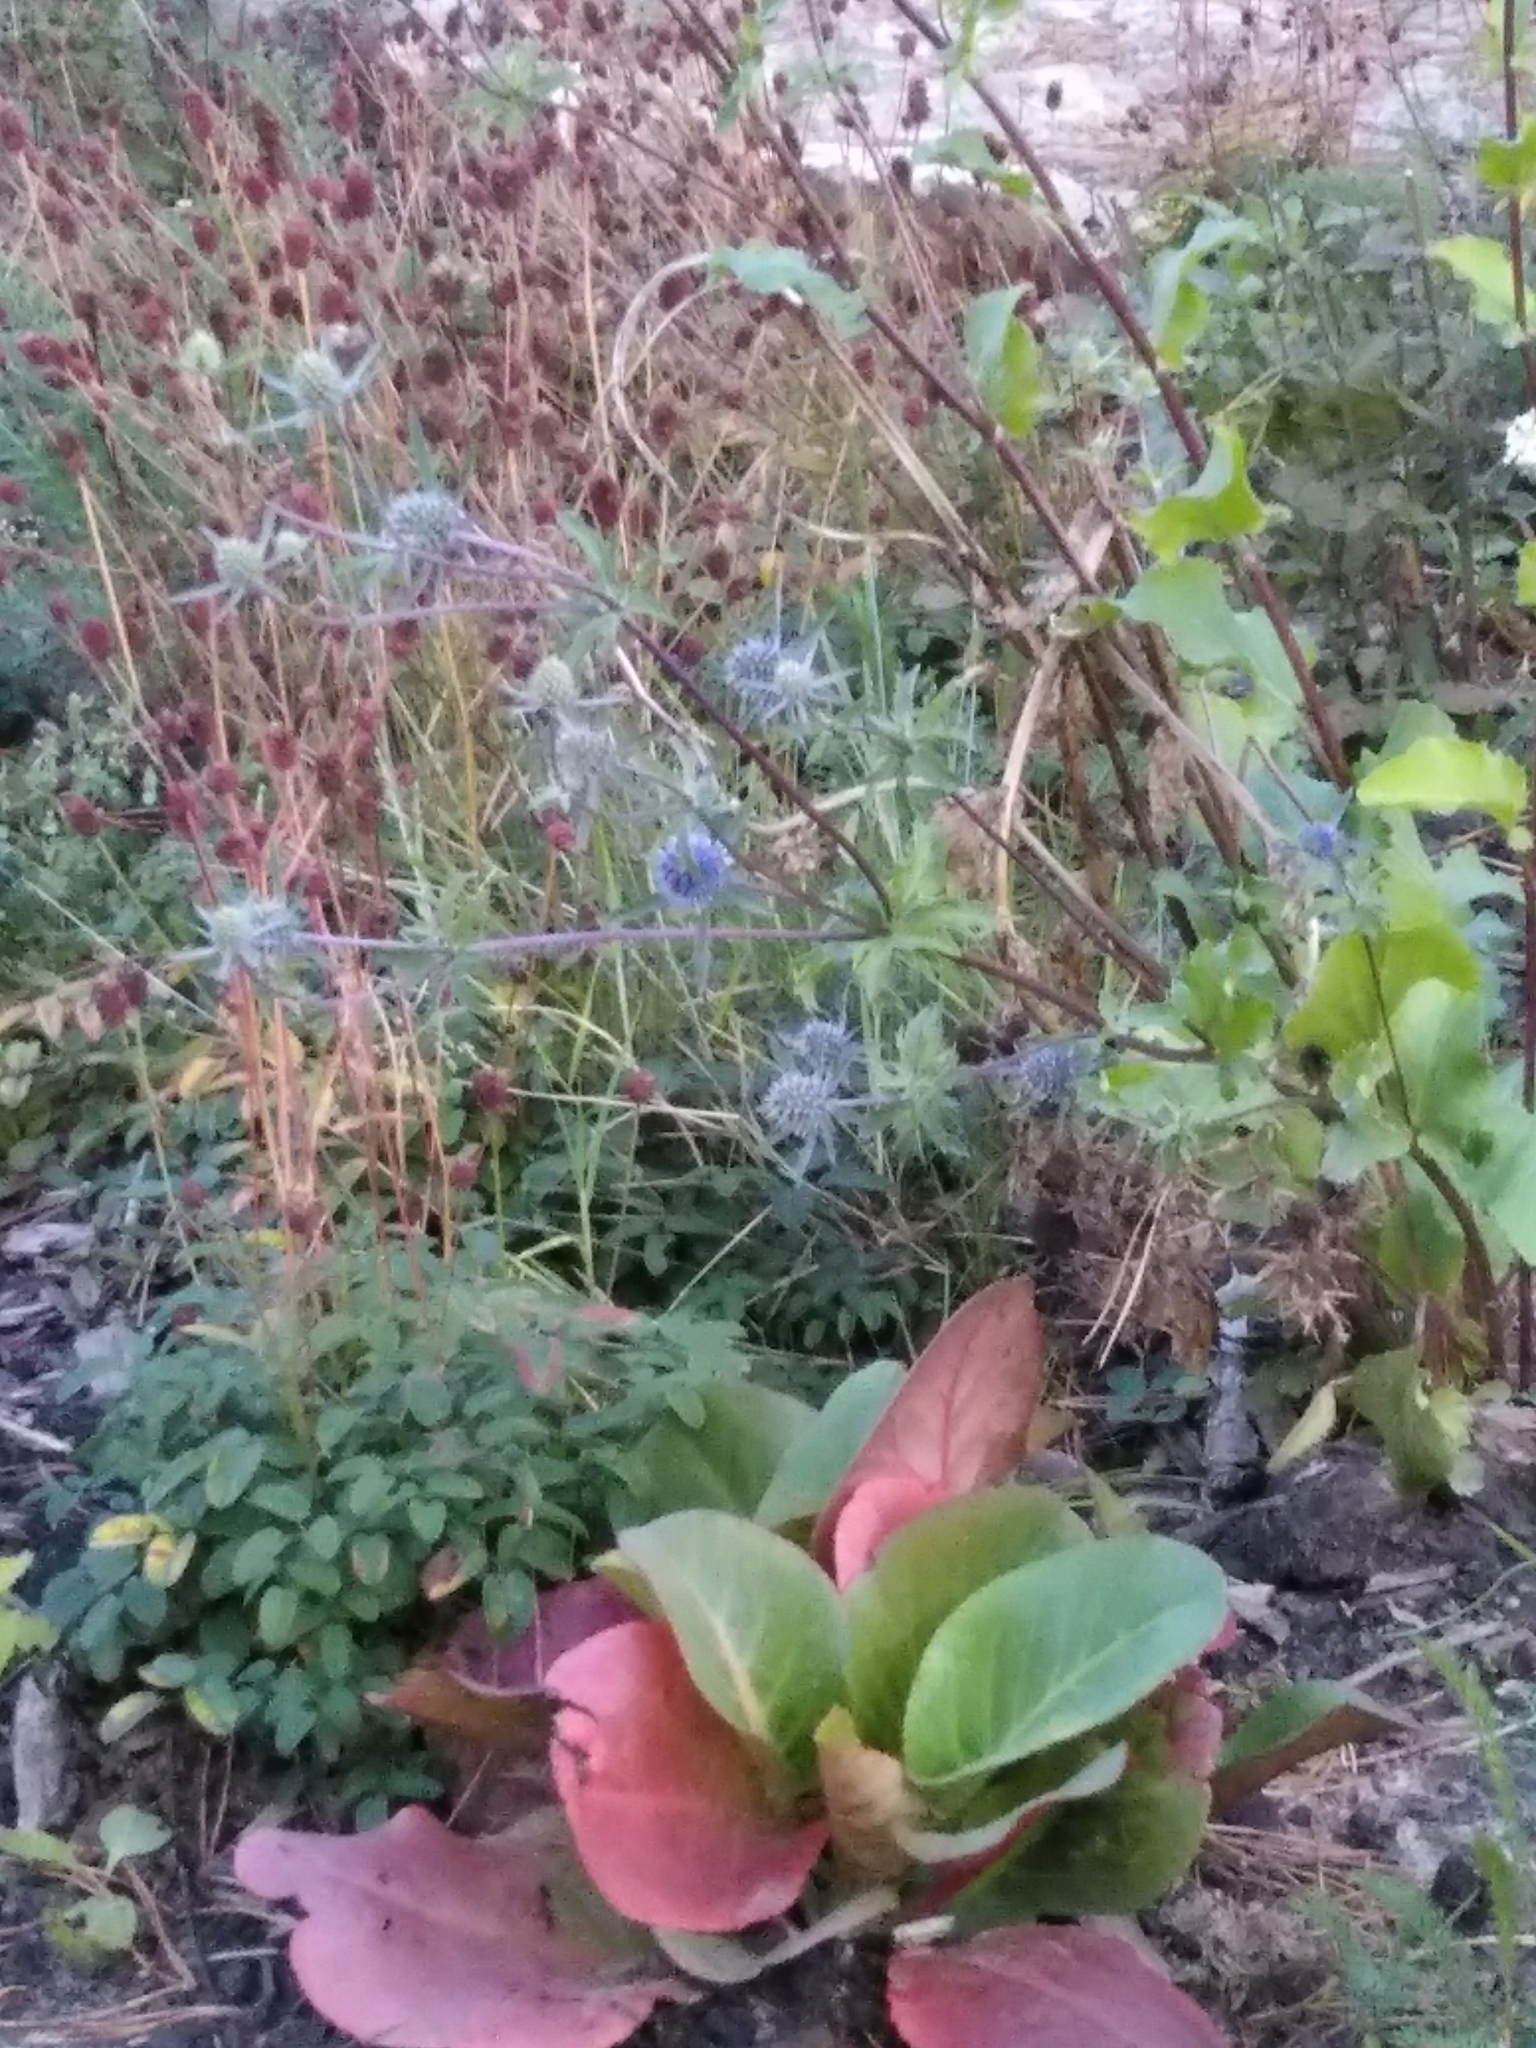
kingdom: Plantae
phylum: Tracheophyta
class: Magnoliopsida
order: Apiales
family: Apiaceae
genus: Eryngium
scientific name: Eryngium planum
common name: Blue eryngo
